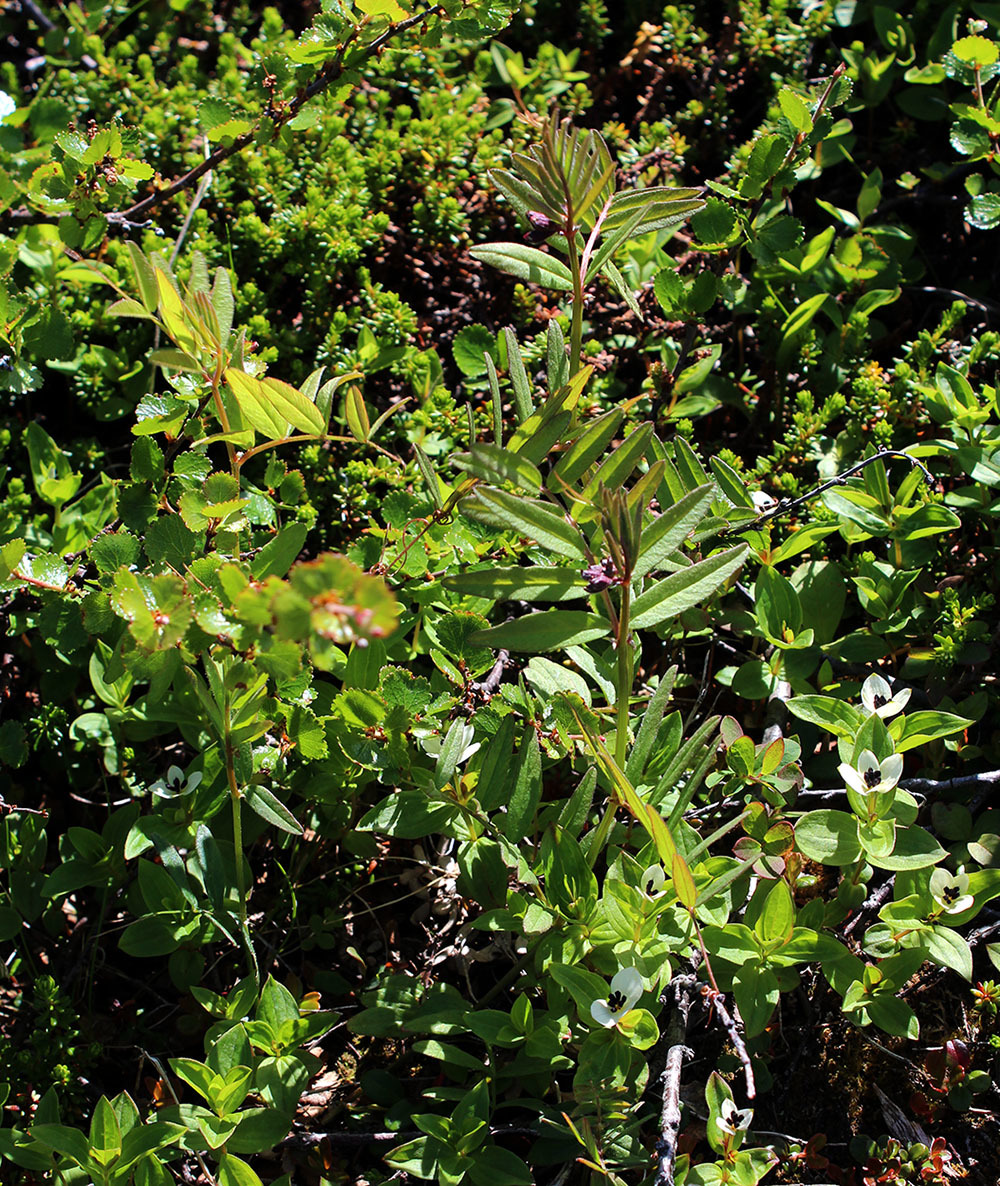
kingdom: Plantae
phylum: Tracheophyta
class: Magnoliopsida
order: Fabales
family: Fabaceae
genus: Vicia
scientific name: Vicia sepium
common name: Bush vetch
